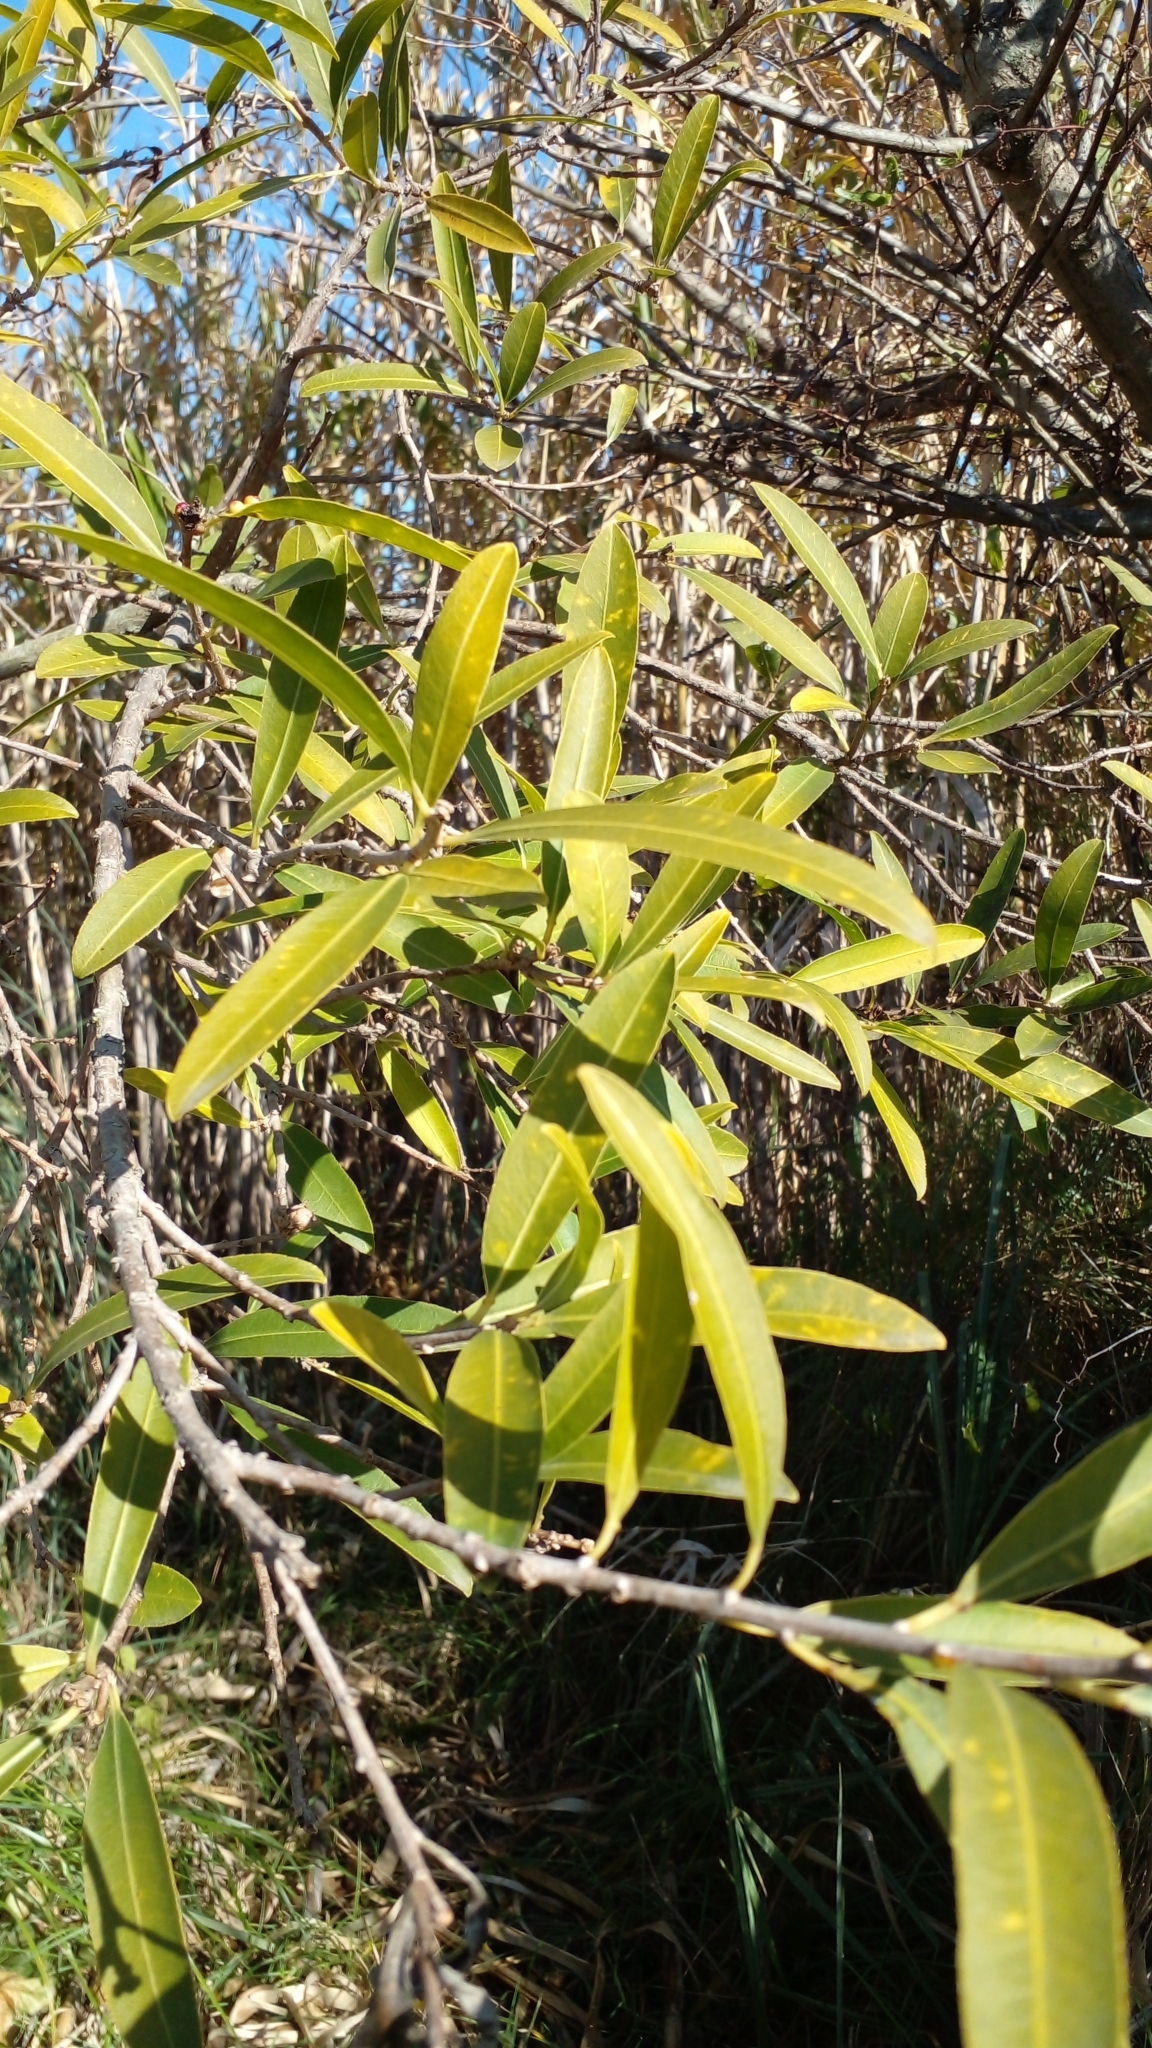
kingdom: Plantae
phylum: Tracheophyta
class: Magnoliopsida
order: Malpighiales
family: Euphorbiaceae
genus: Sapium
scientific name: Sapium haematospermum
